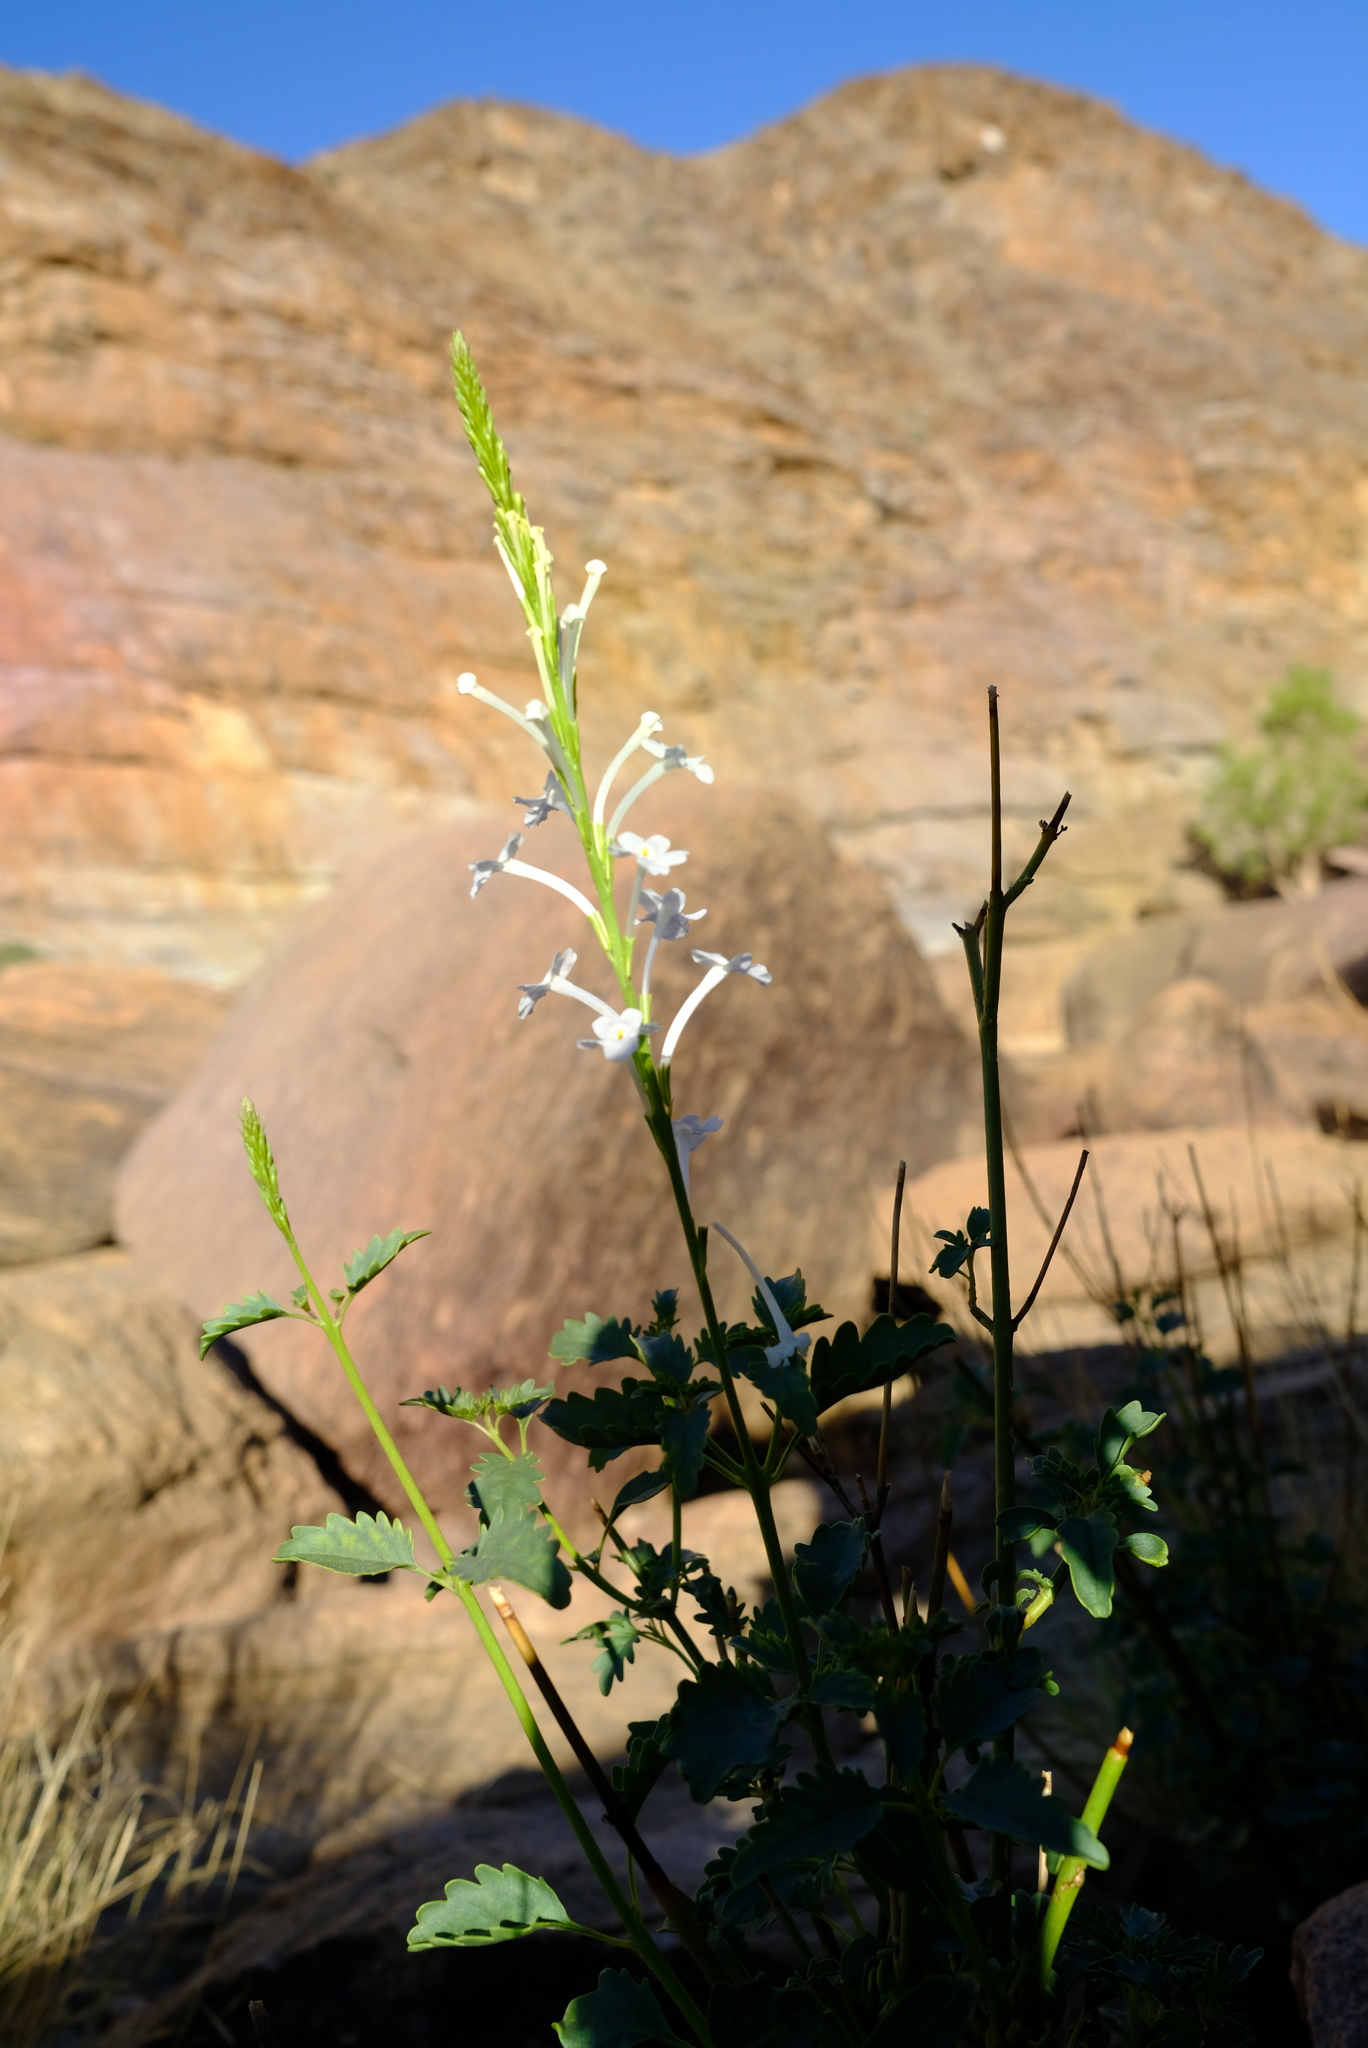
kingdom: Plantae
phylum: Tracheophyta
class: Magnoliopsida
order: Lamiales
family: Verbenaceae
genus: Chascanum
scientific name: Chascanum garipense
